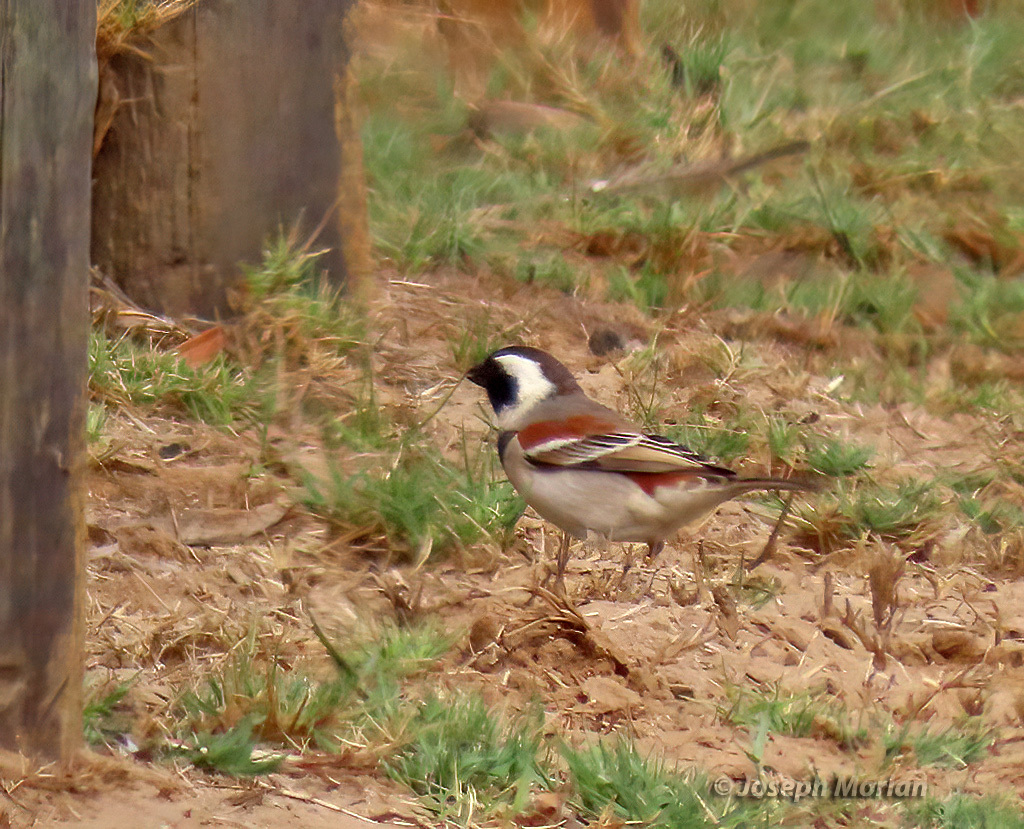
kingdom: Animalia
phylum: Chordata
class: Aves
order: Passeriformes
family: Passeridae
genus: Passer
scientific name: Passer melanurus
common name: Cape sparrow
